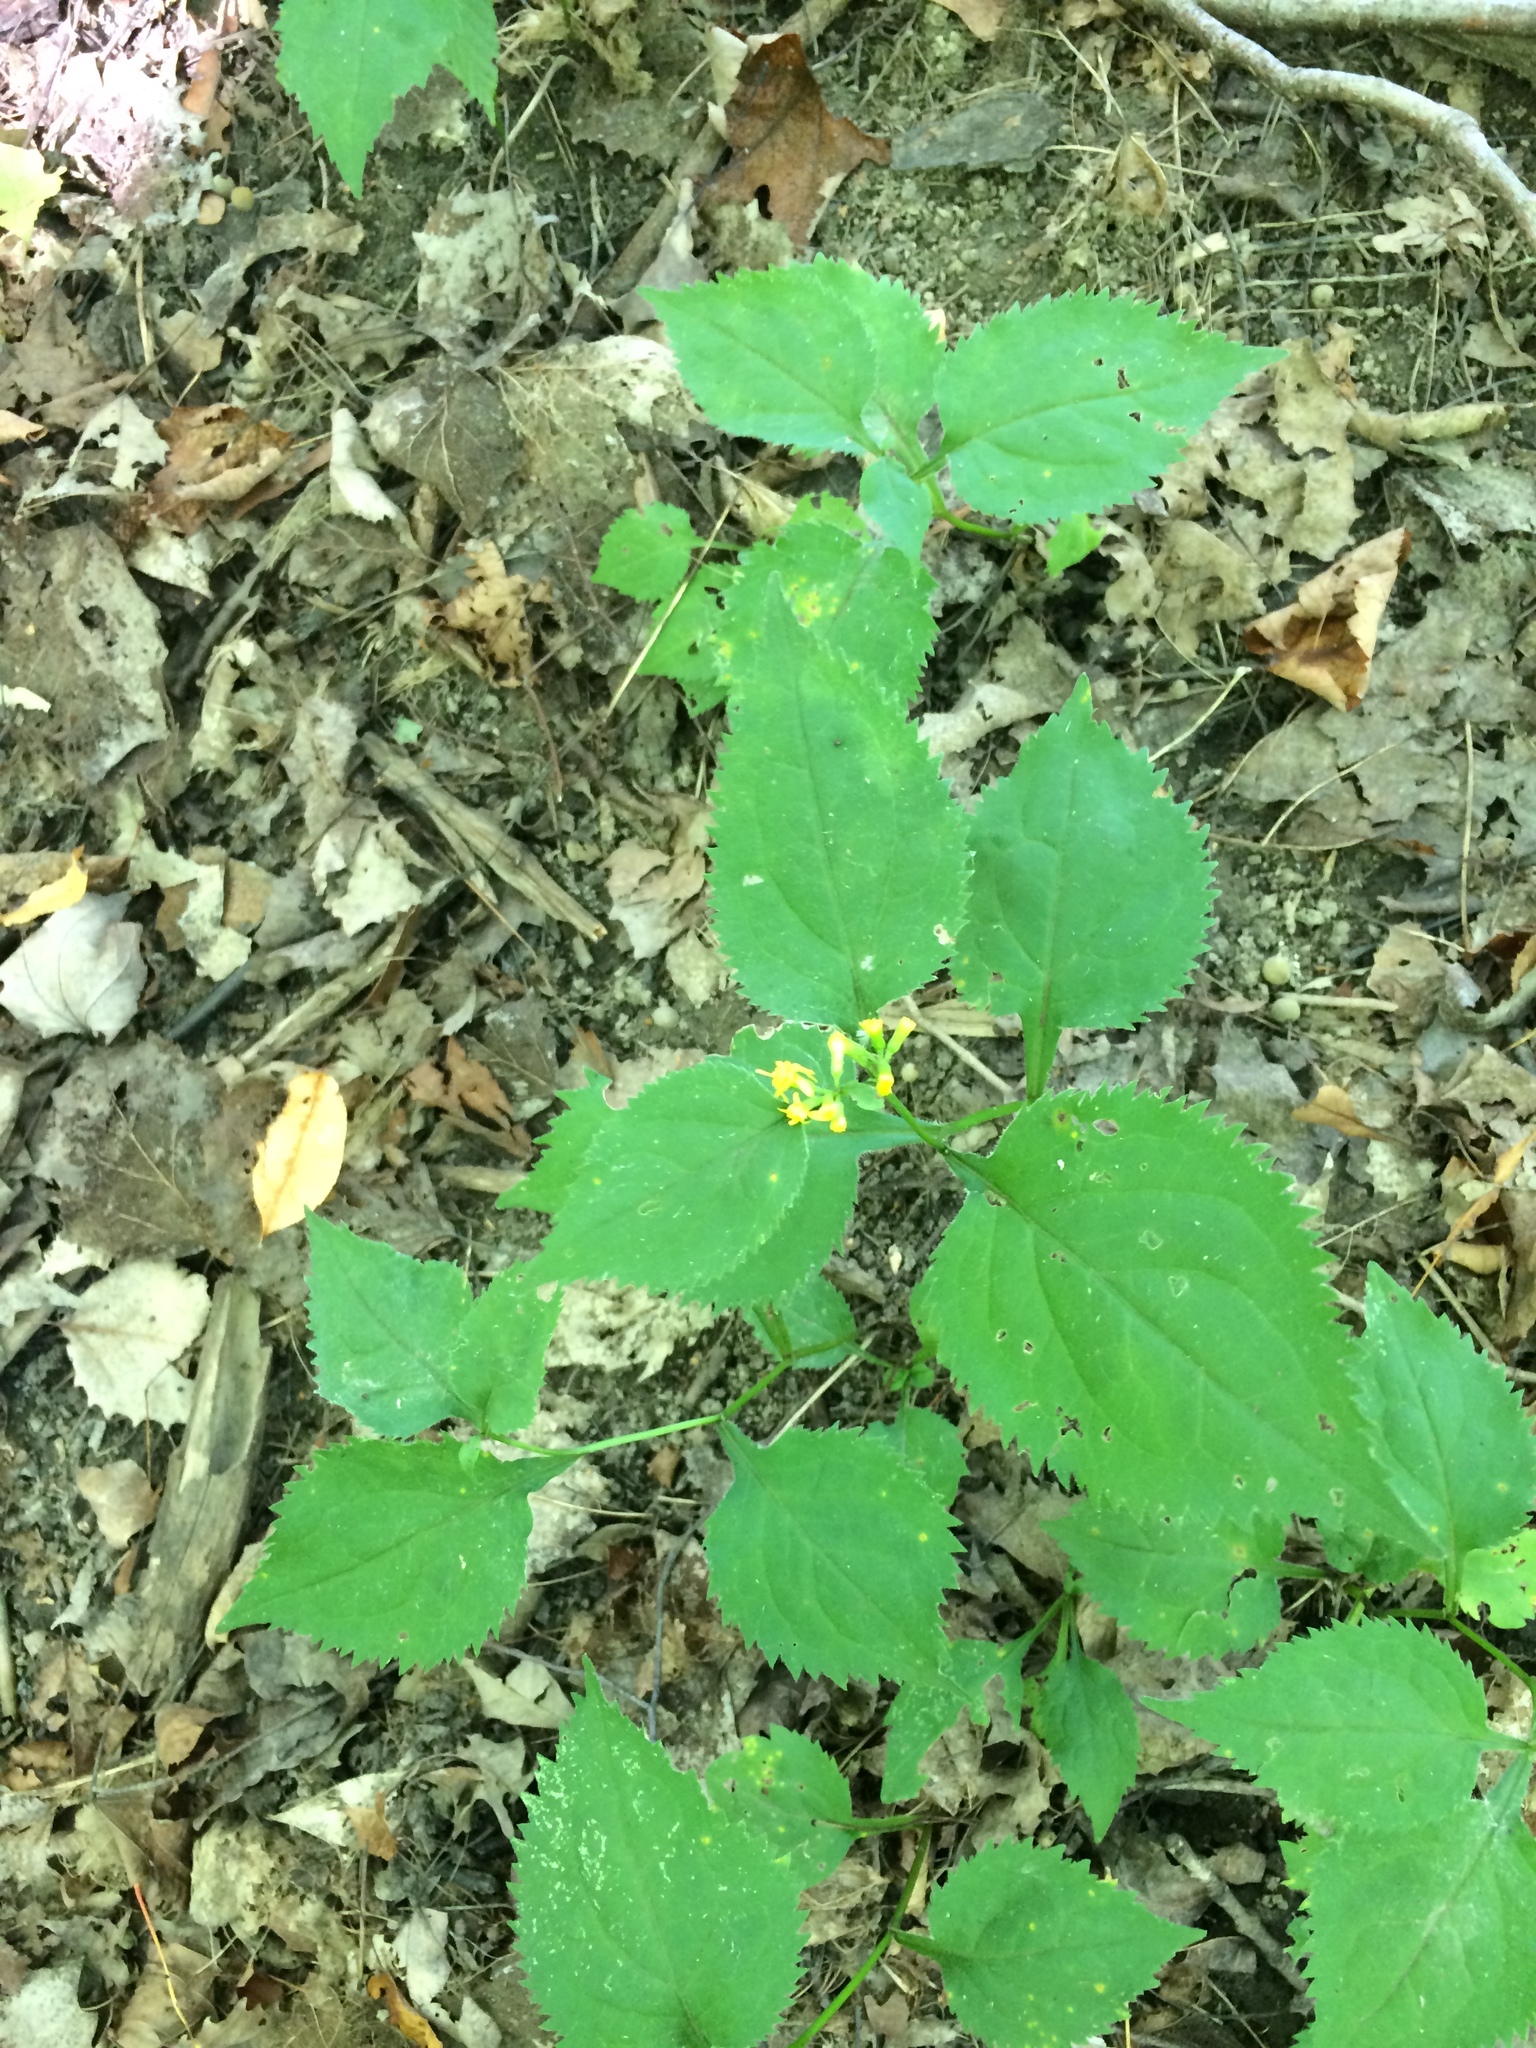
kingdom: Plantae
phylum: Tracheophyta
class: Magnoliopsida
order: Asterales
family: Asteraceae
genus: Solidago
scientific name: Solidago flexicaulis
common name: Zig-zag goldenrod
